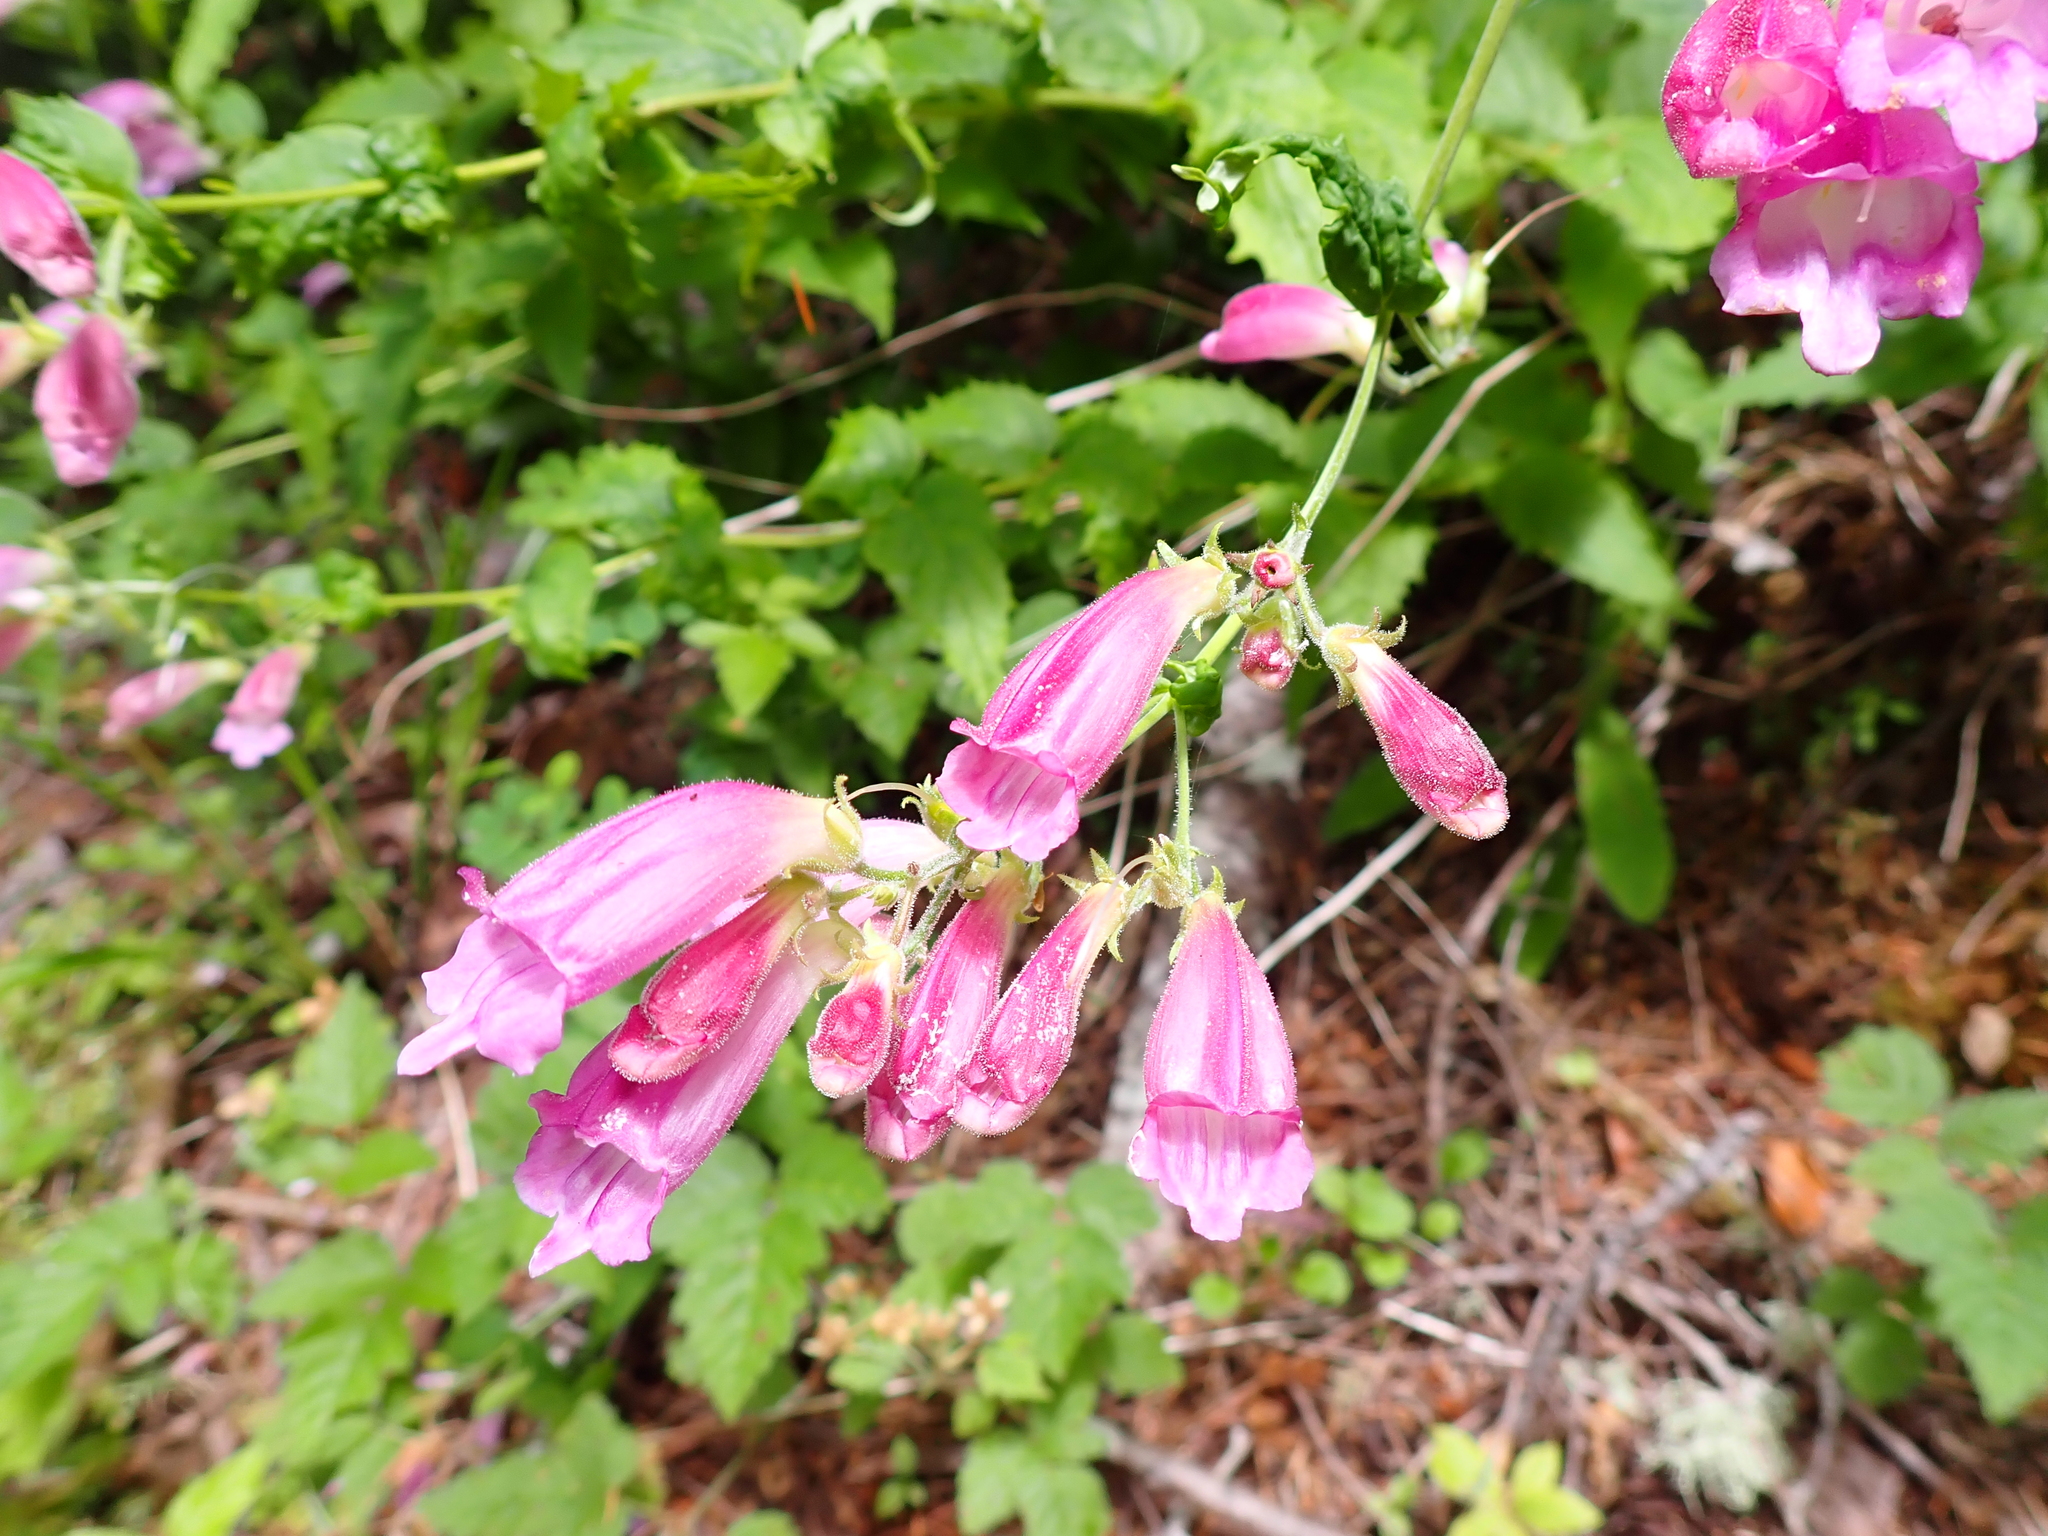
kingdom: Plantae
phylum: Tracheophyta
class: Magnoliopsida
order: Lamiales
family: Plantaginaceae
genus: Nothochelone
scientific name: Nothochelone nemorosa
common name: Woodland beardtongue
